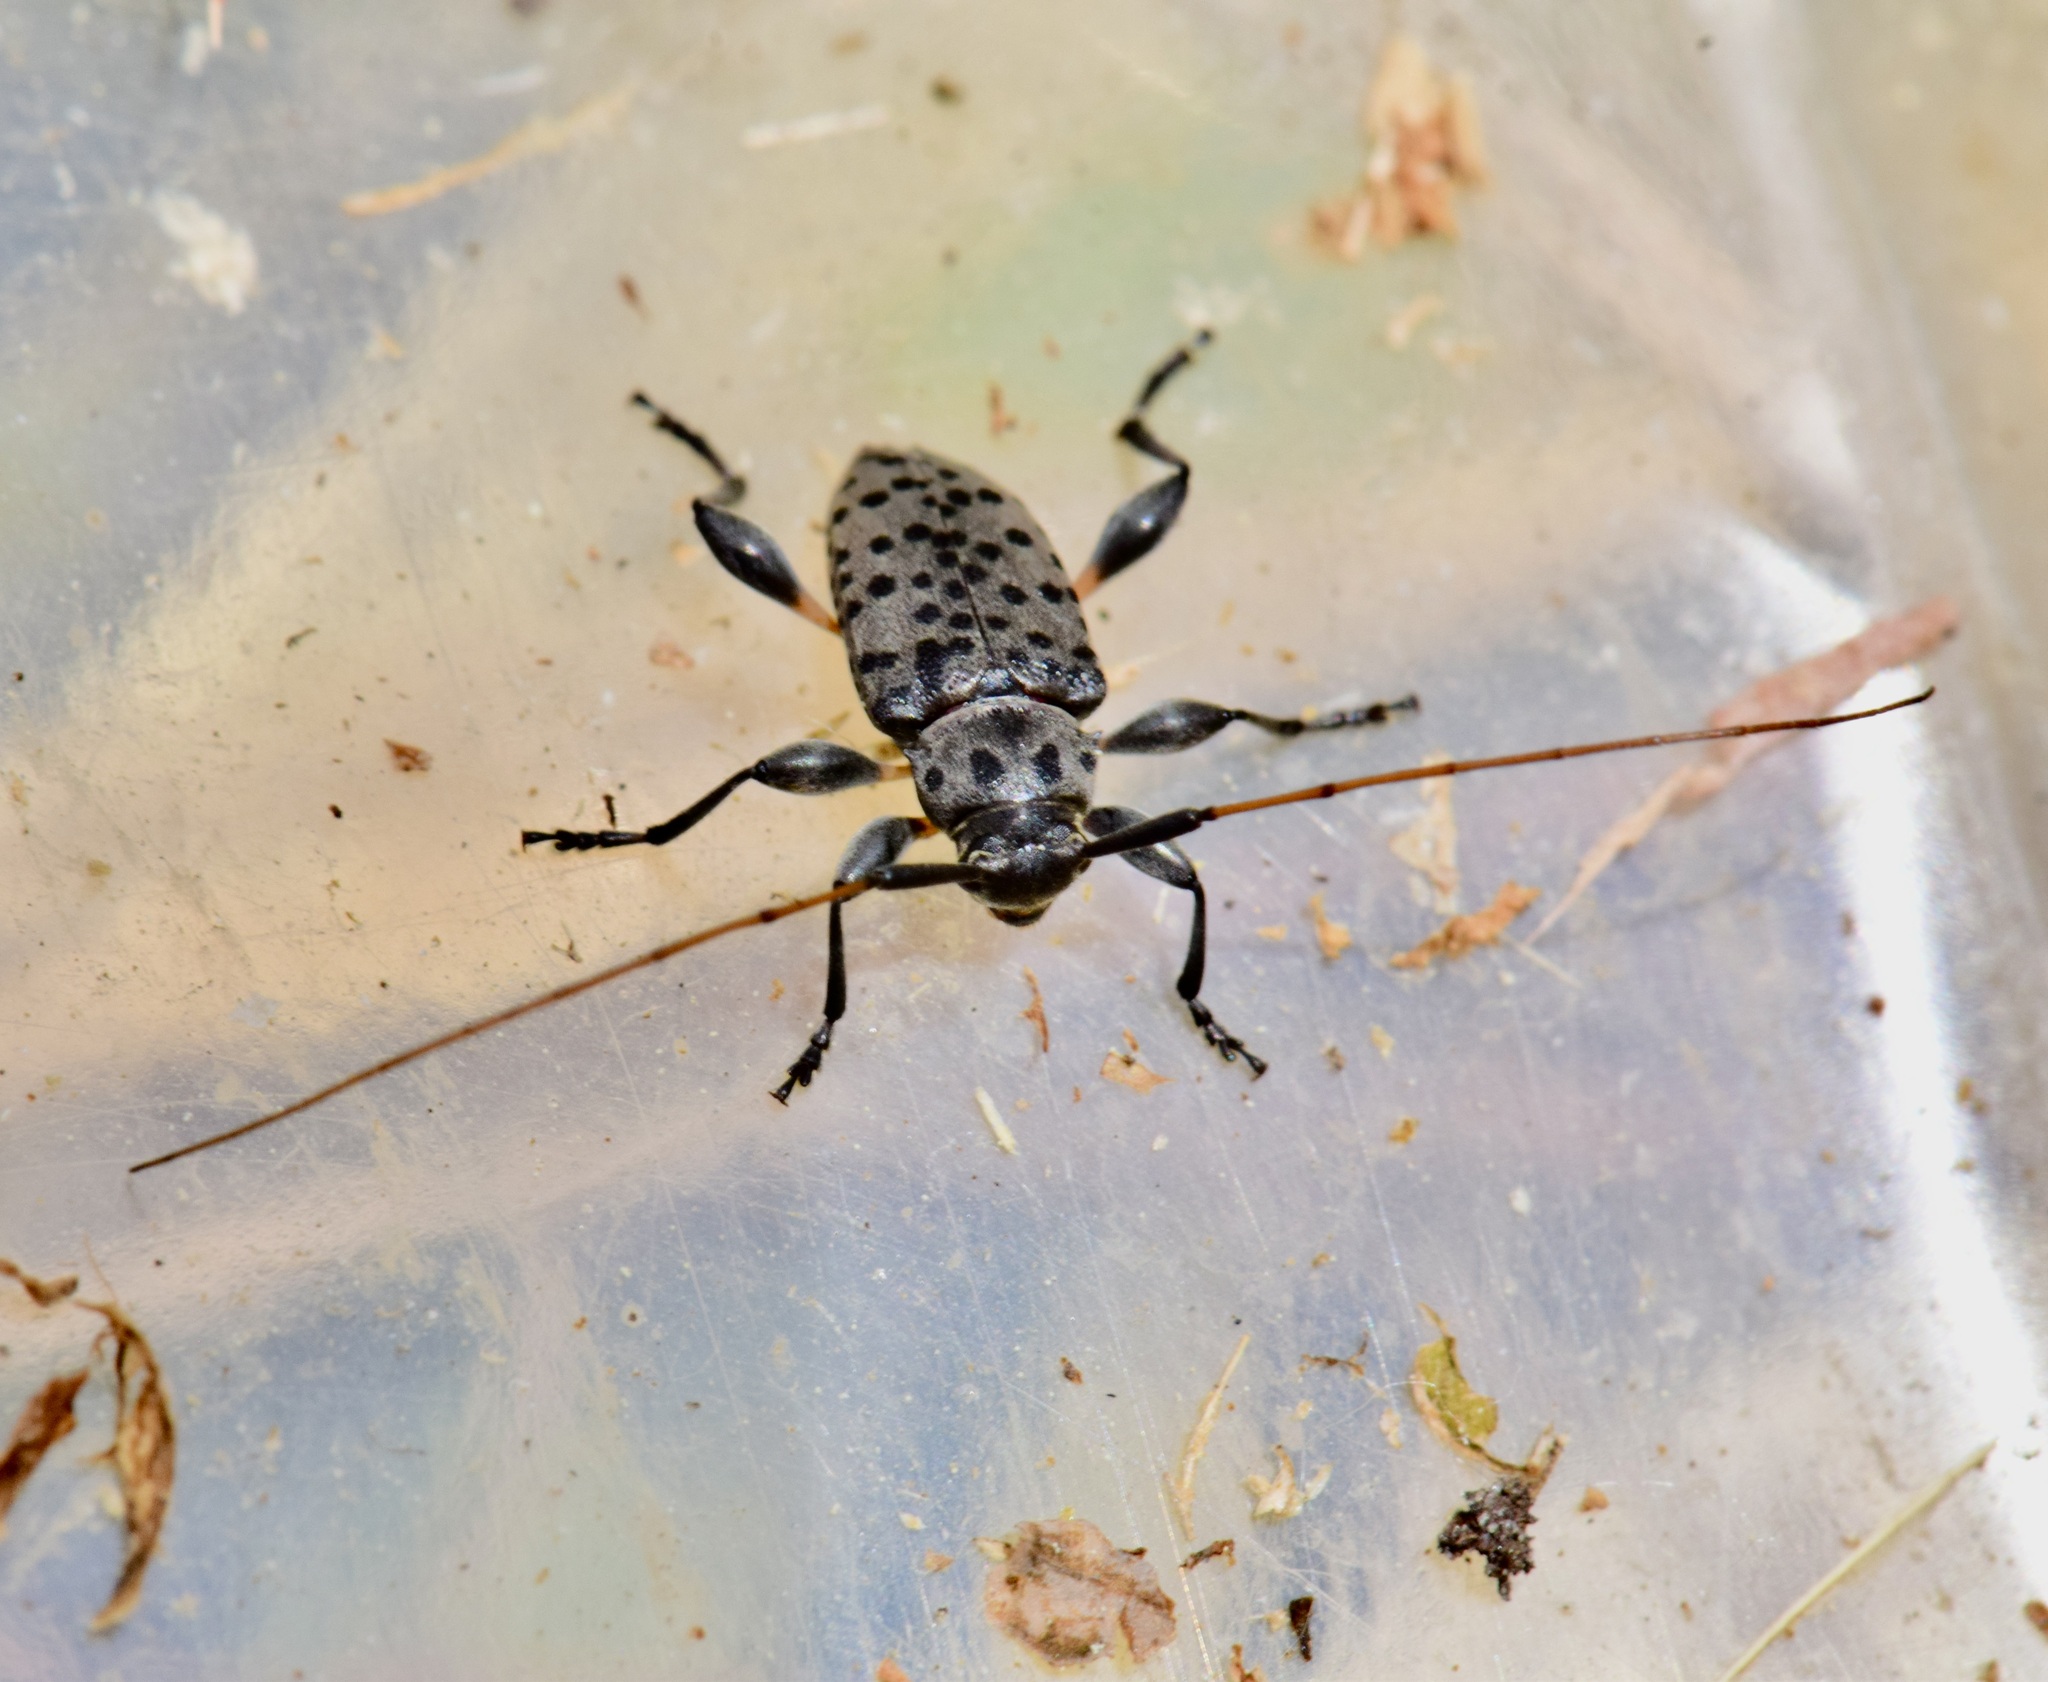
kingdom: Animalia
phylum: Arthropoda
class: Insecta
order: Coleoptera
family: Cerambycidae
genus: Hyperplatys
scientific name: Hyperplatys aspersa
